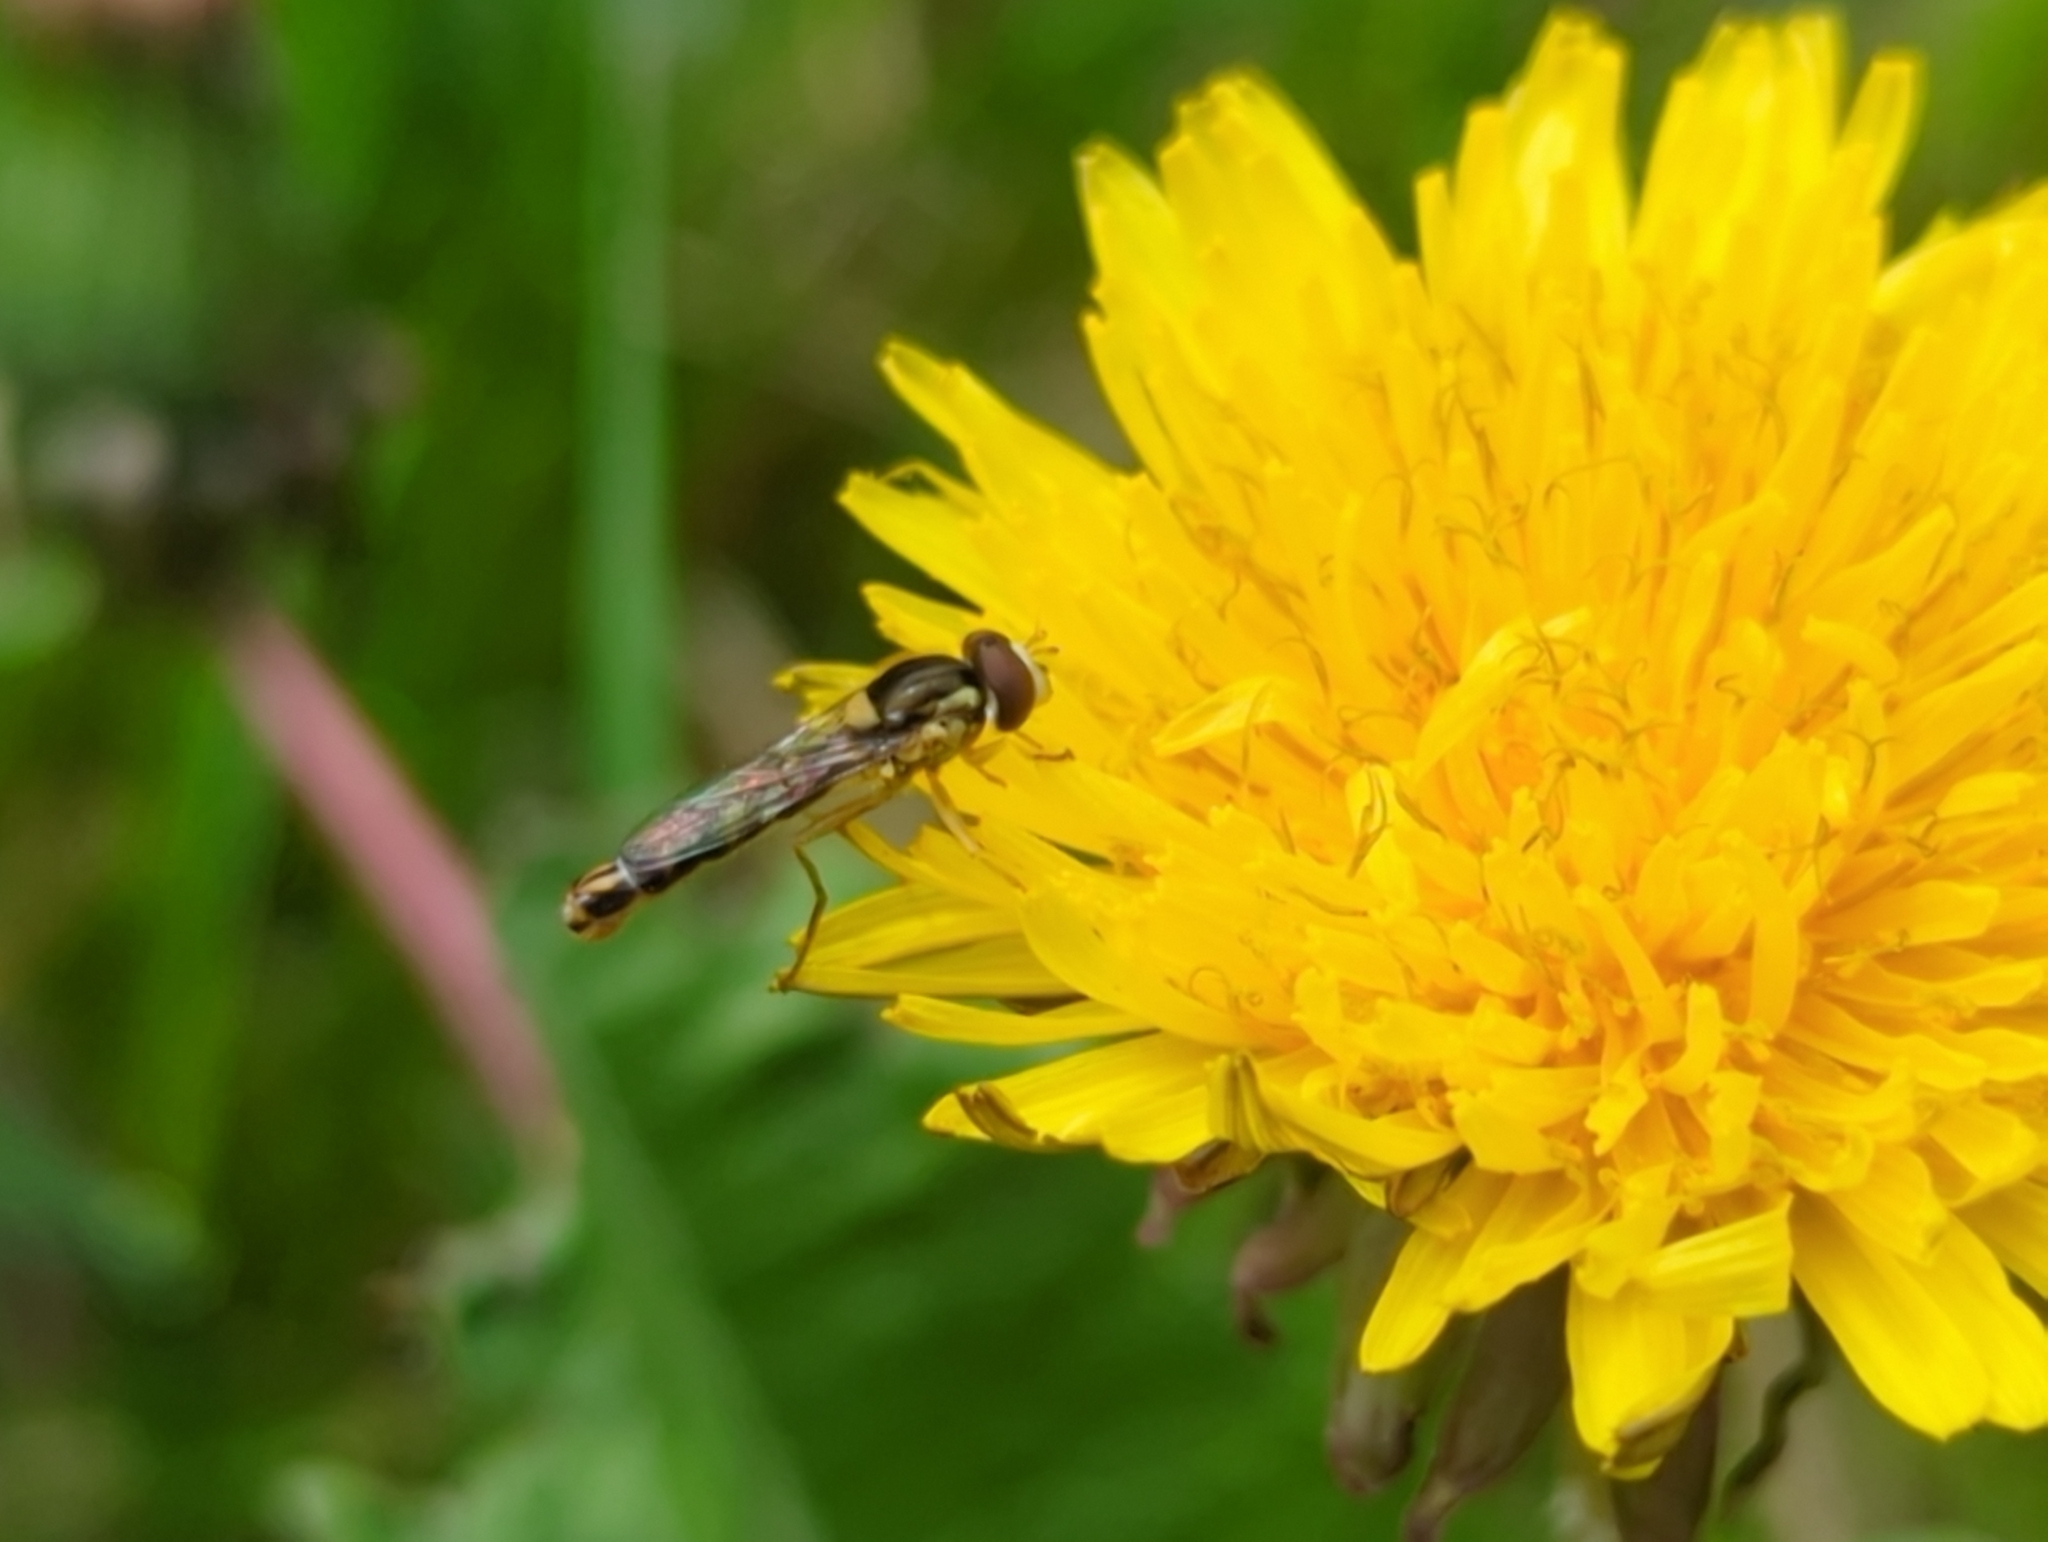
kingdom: Animalia
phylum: Arthropoda
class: Insecta
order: Diptera
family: Syrphidae
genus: Sphaerophoria
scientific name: Sphaerophoria scripta
